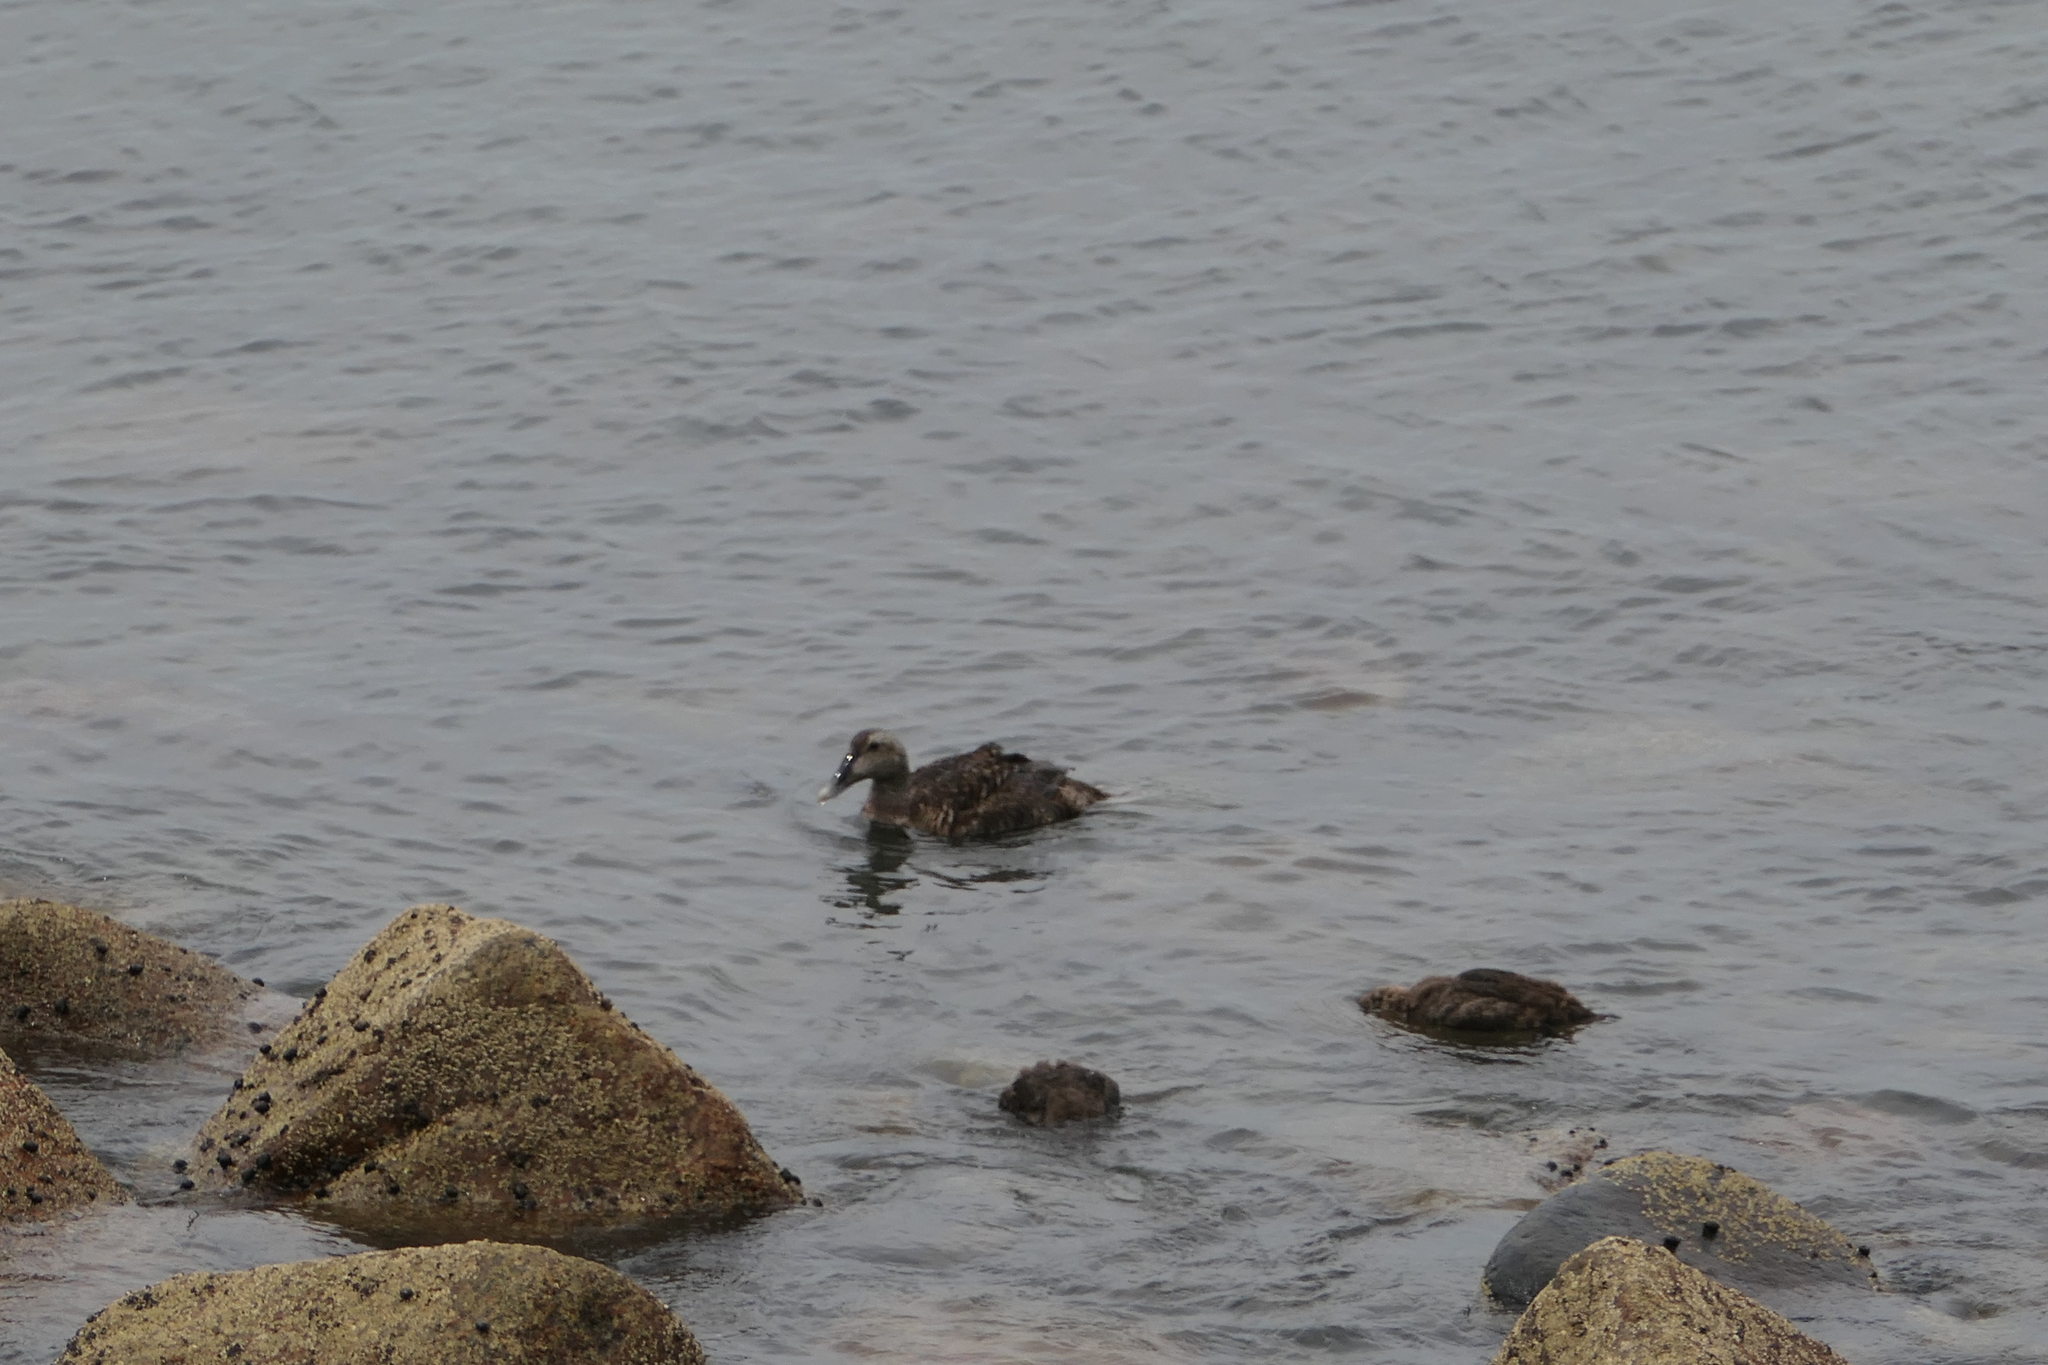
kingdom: Animalia
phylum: Chordata
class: Aves
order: Anseriformes
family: Anatidae
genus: Somateria
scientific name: Somateria mollissima
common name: Common eider
